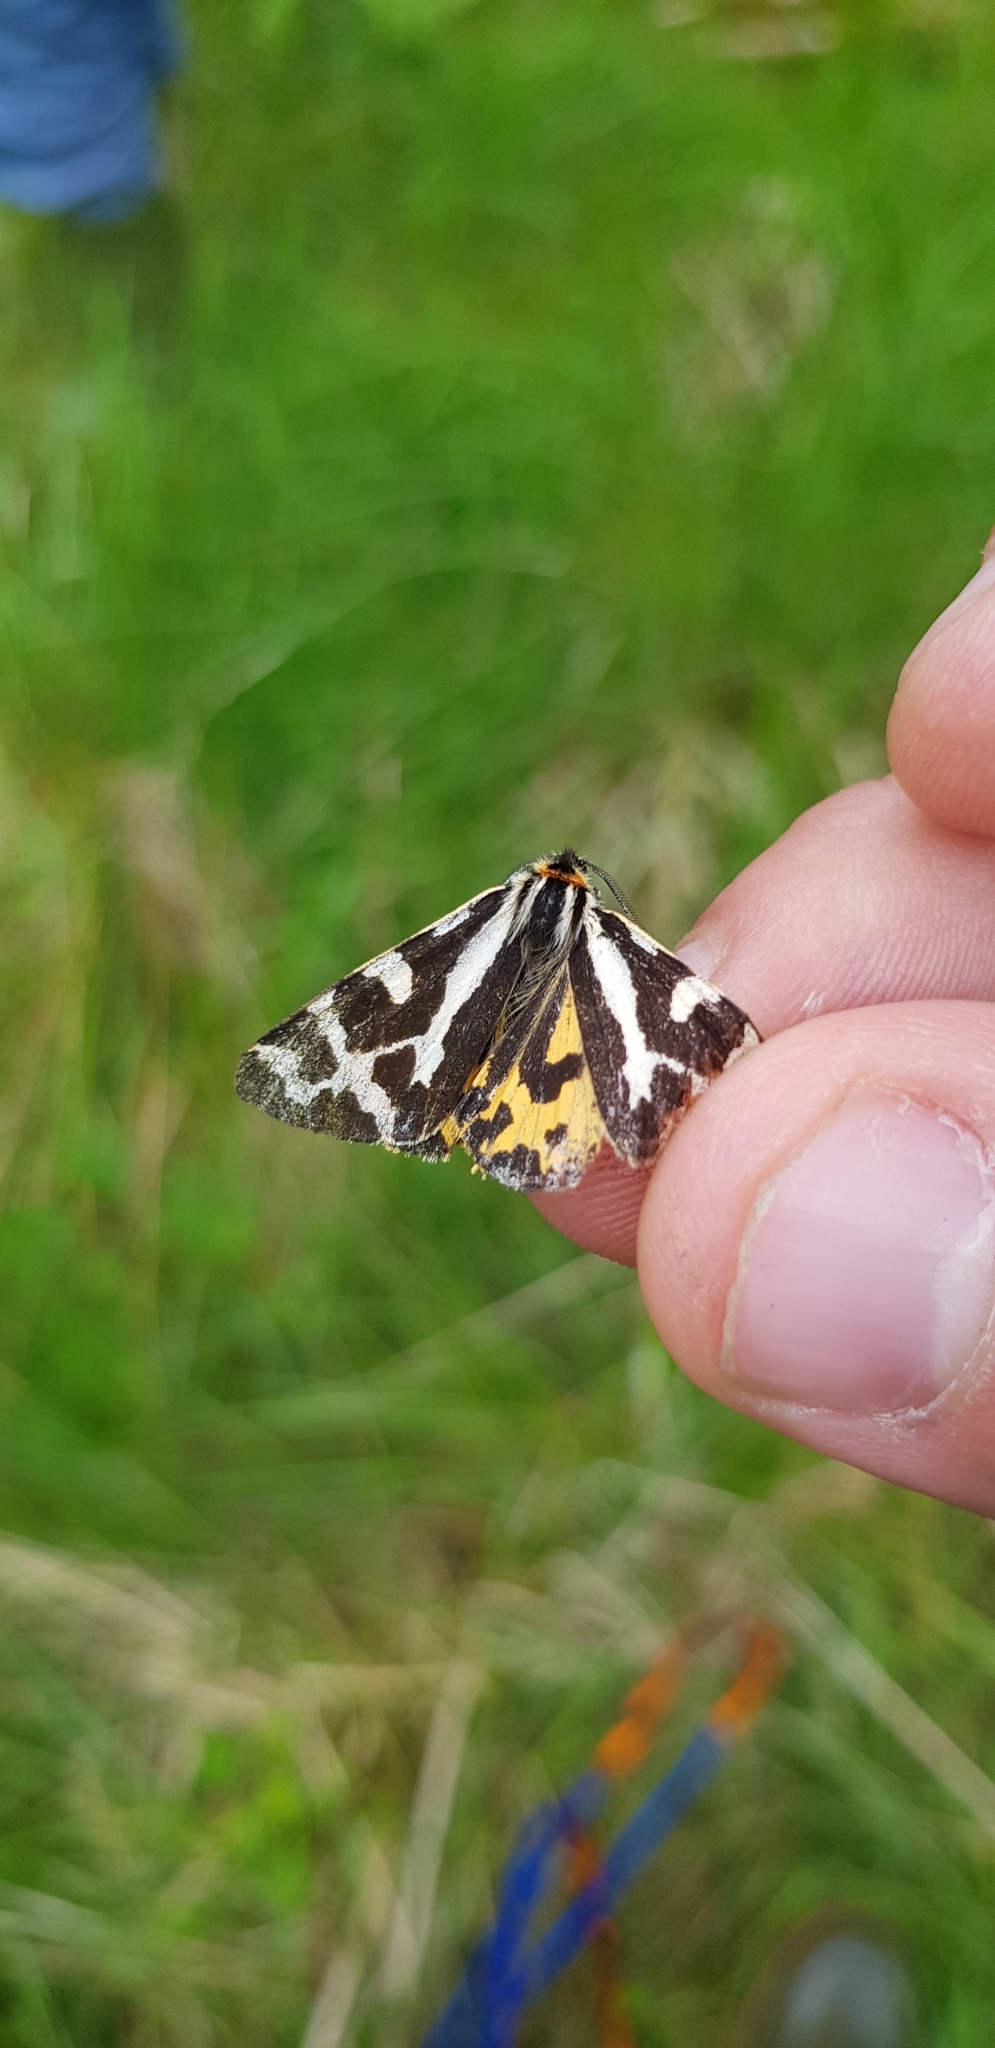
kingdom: Animalia
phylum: Arthropoda
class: Insecta
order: Lepidoptera
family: Erebidae
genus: Parasemia
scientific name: Parasemia plantaginis
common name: Wood tiger
